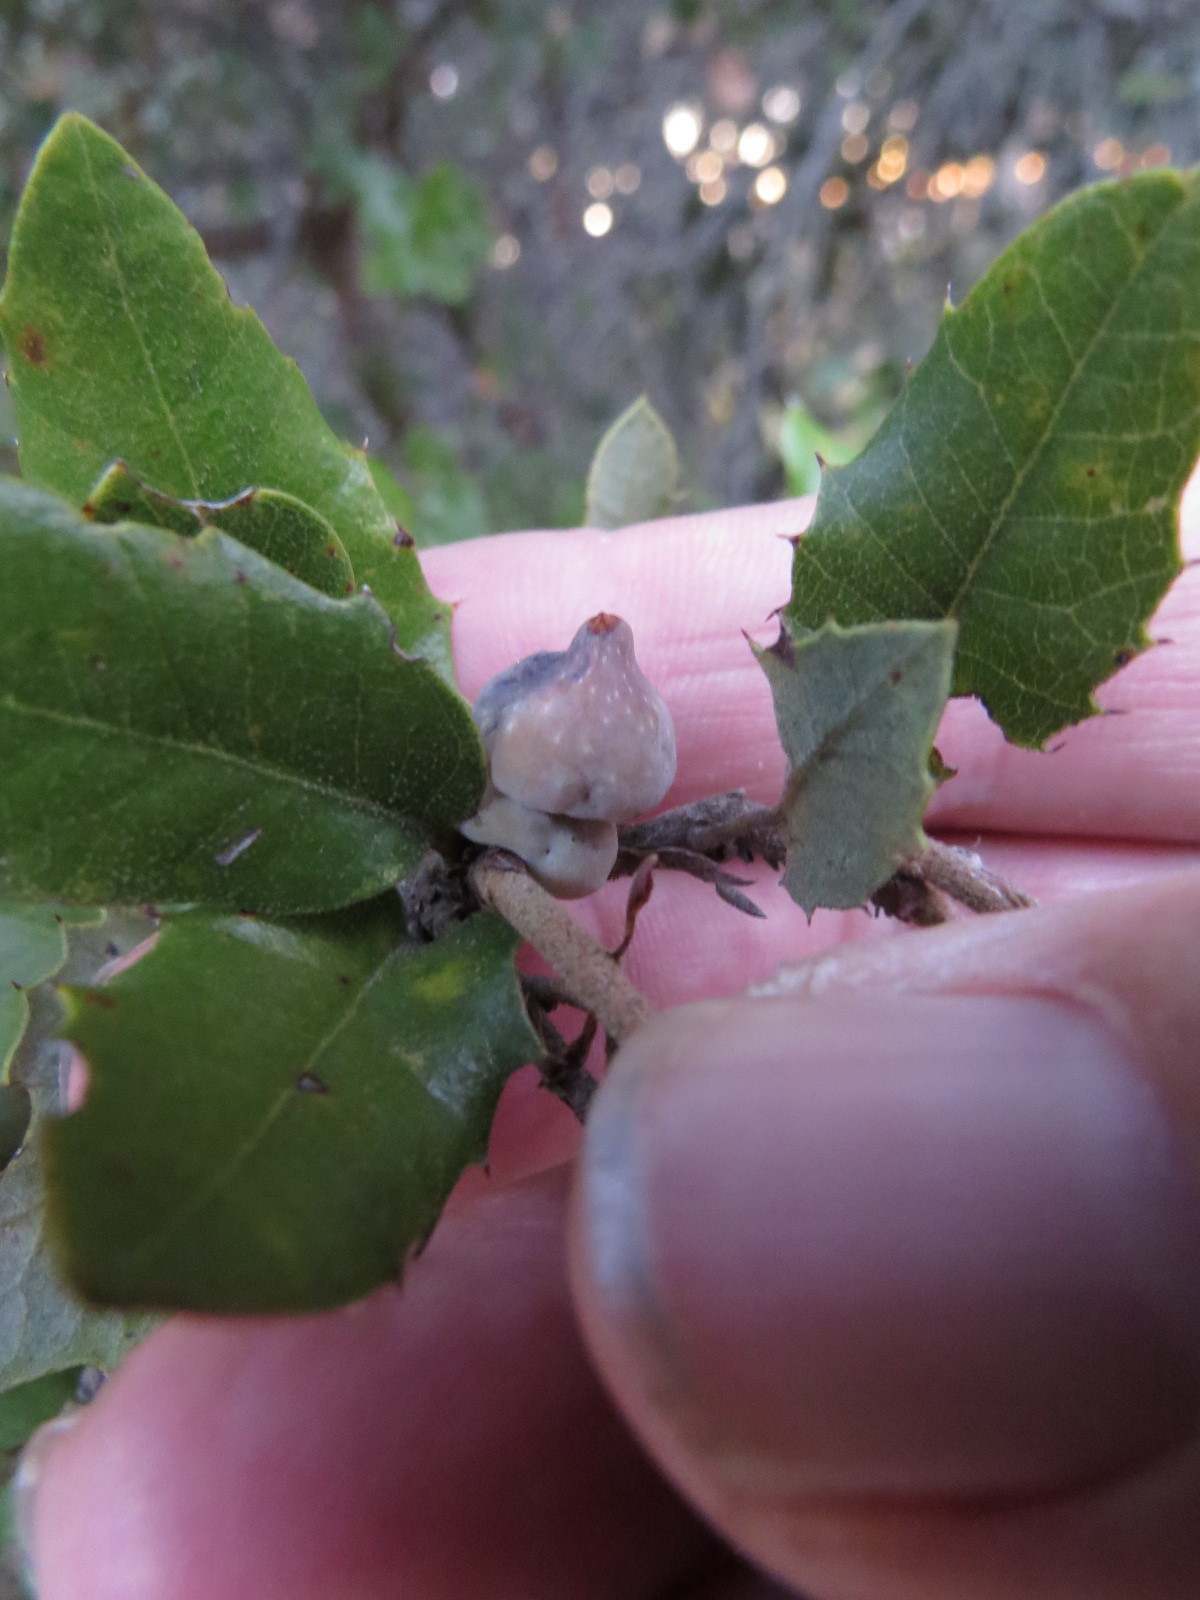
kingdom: Animalia
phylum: Arthropoda
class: Insecta
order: Hymenoptera
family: Cynipidae
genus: Heteroecus
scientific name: Heteroecus
